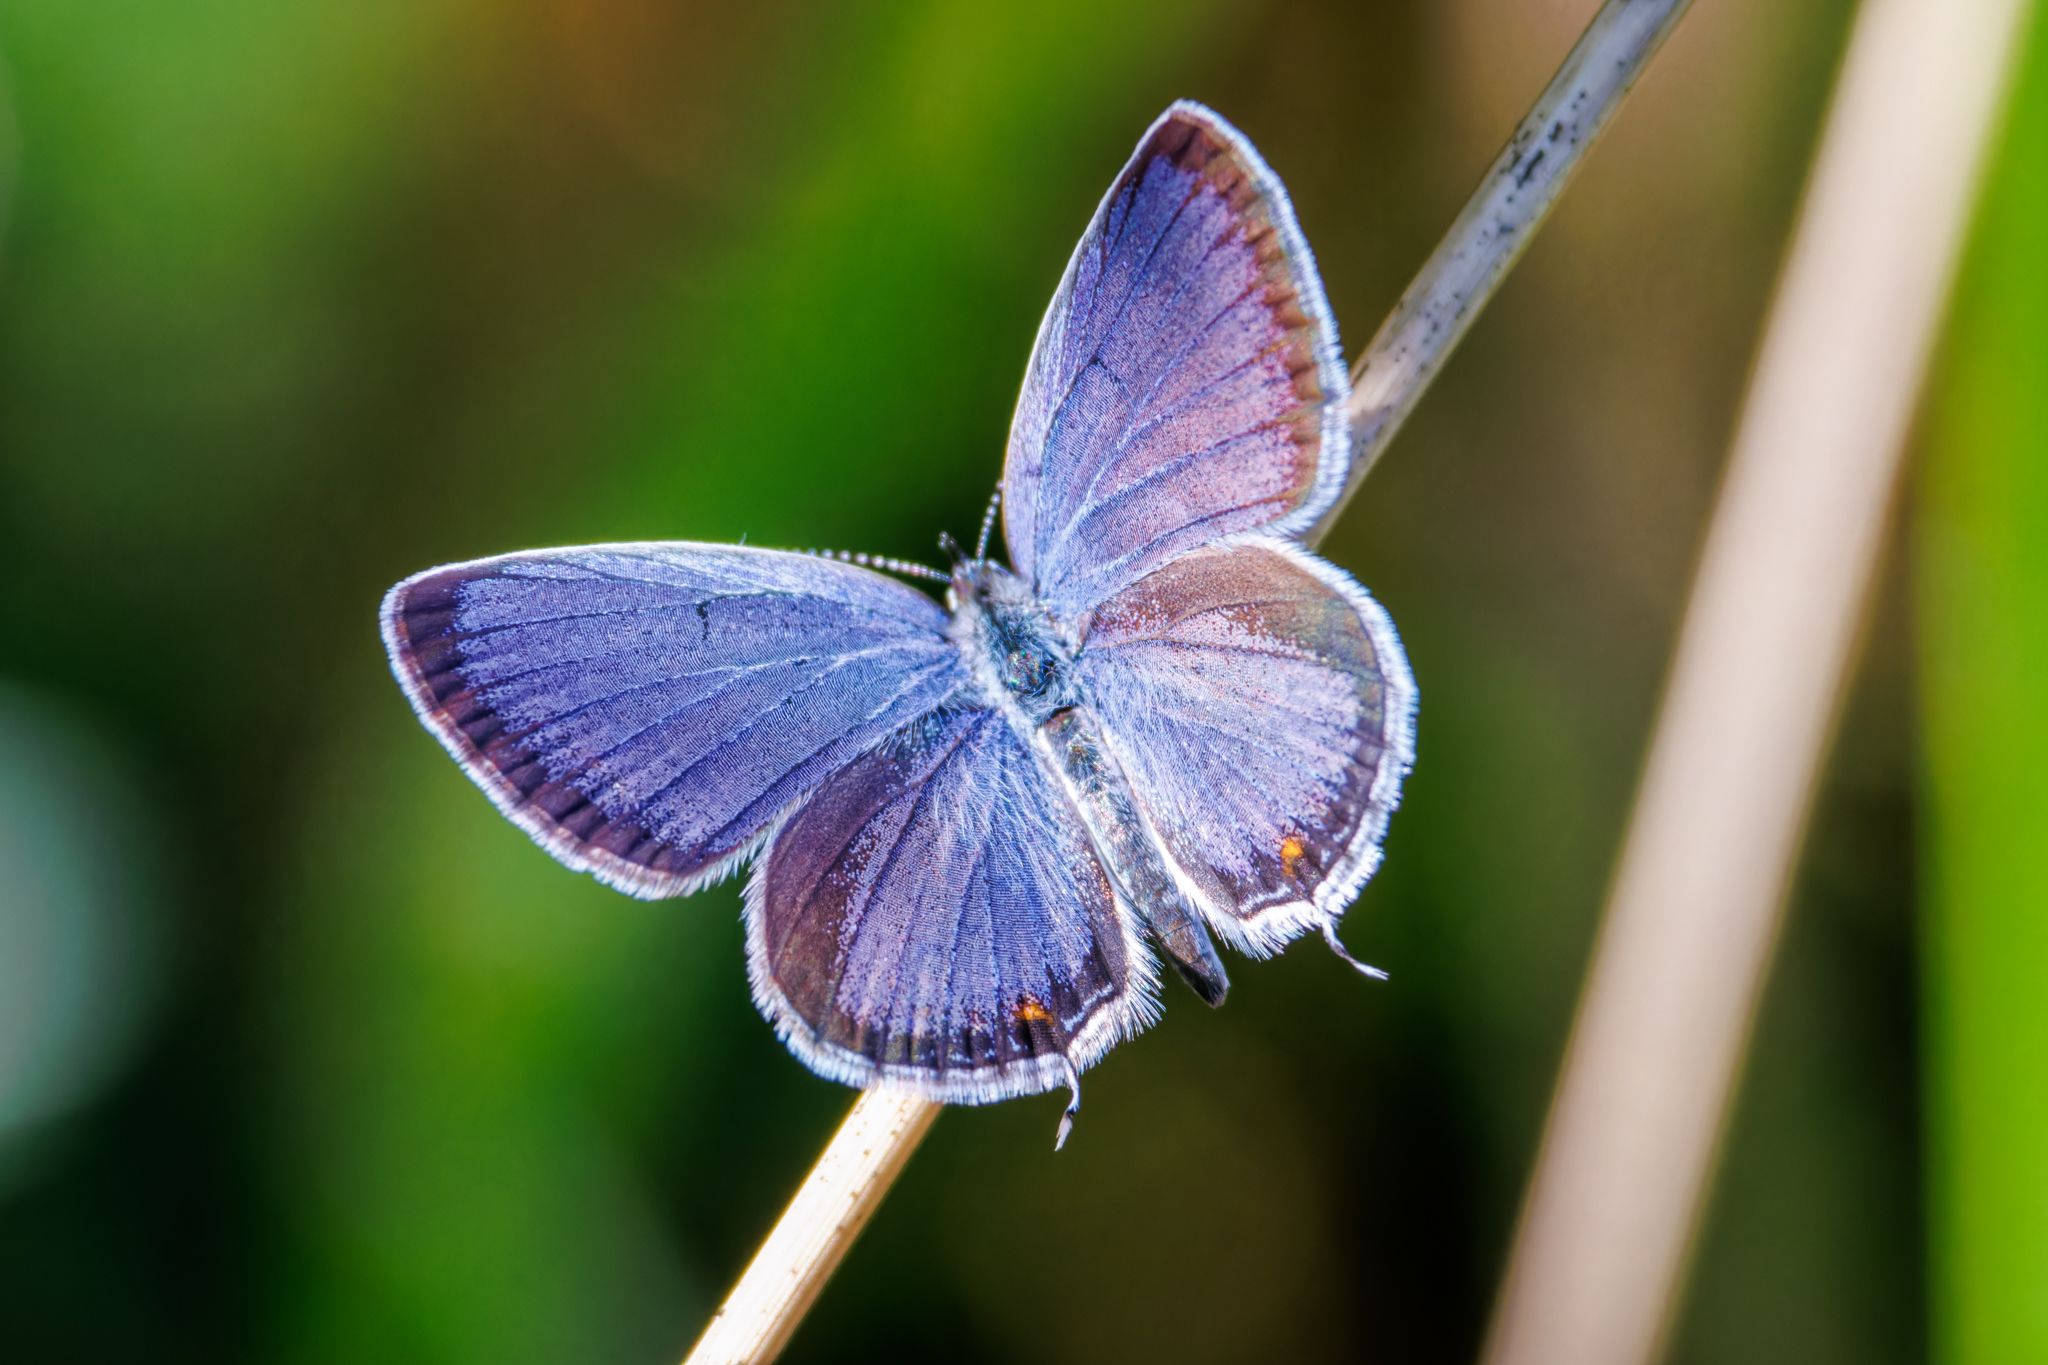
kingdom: Animalia
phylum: Arthropoda
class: Insecta
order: Lepidoptera
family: Lycaenidae
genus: Elkalyce
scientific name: Elkalyce comyntas
